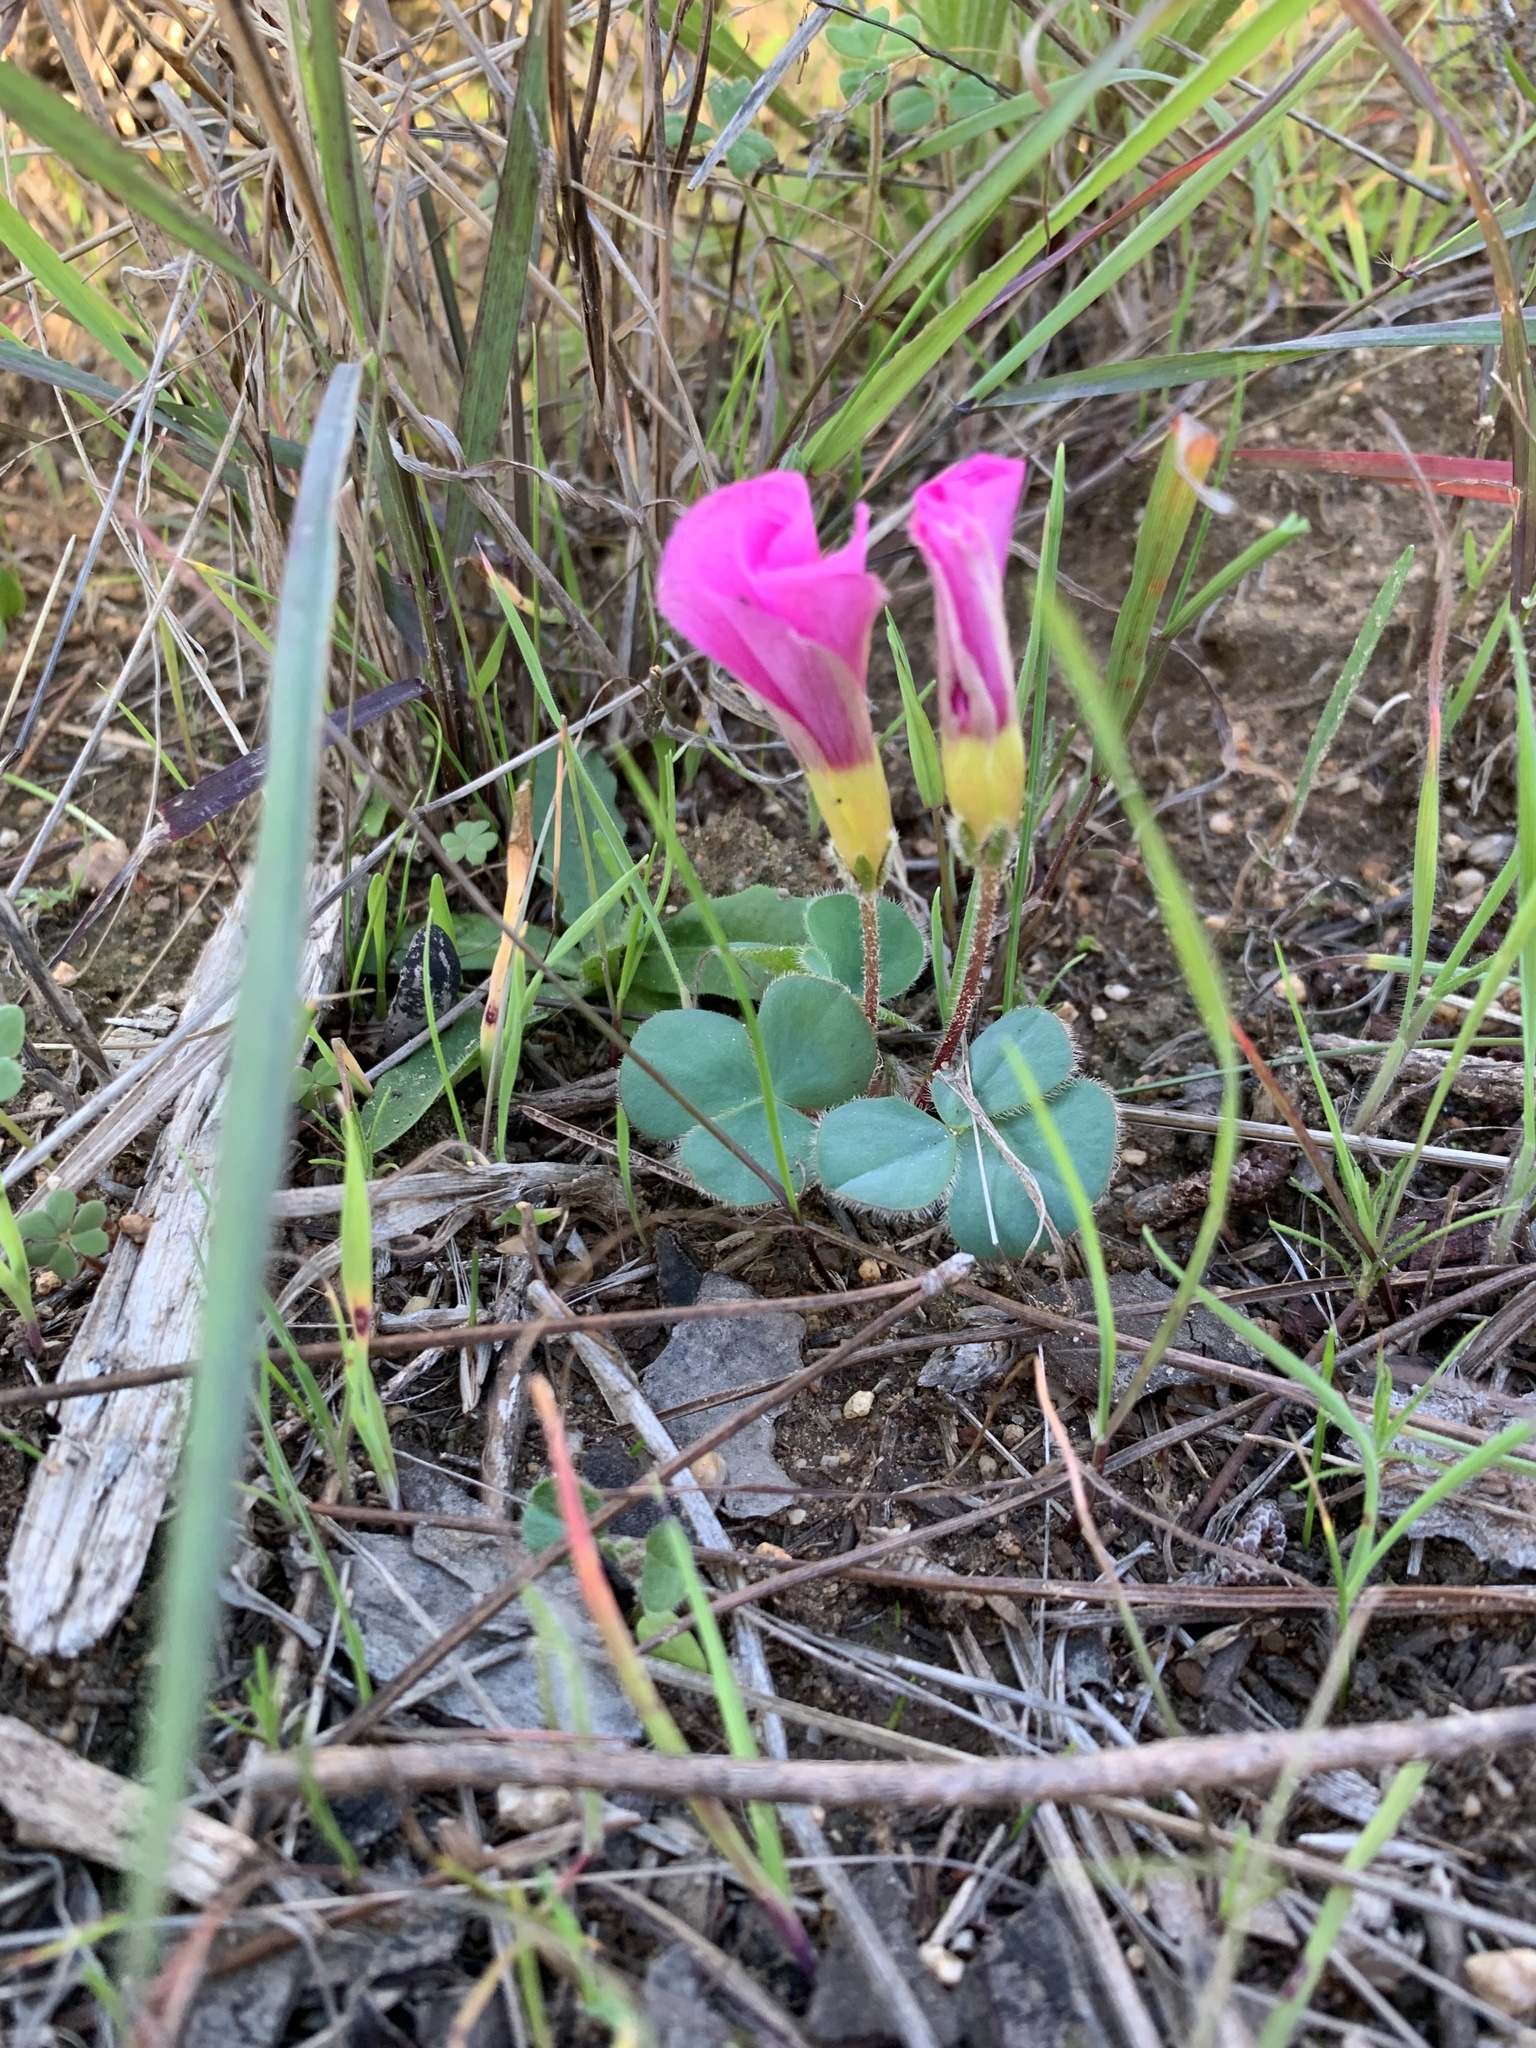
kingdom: Plantae
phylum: Tracheophyta
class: Magnoliopsida
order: Oxalidales
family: Oxalidaceae
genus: Oxalis
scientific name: Oxalis purpurea
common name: Purple woodsorrel
